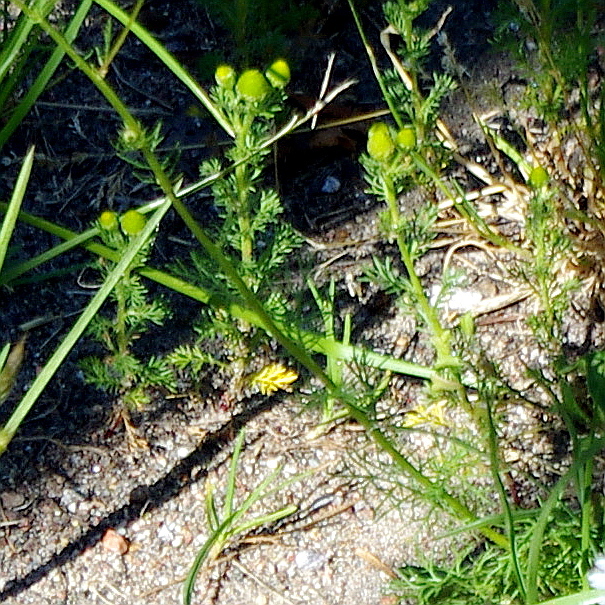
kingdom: Plantae
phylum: Tracheophyta
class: Magnoliopsida
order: Asterales
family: Asteraceae
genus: Matricaria
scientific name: Matricaria discoidea
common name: Disc mayweed
